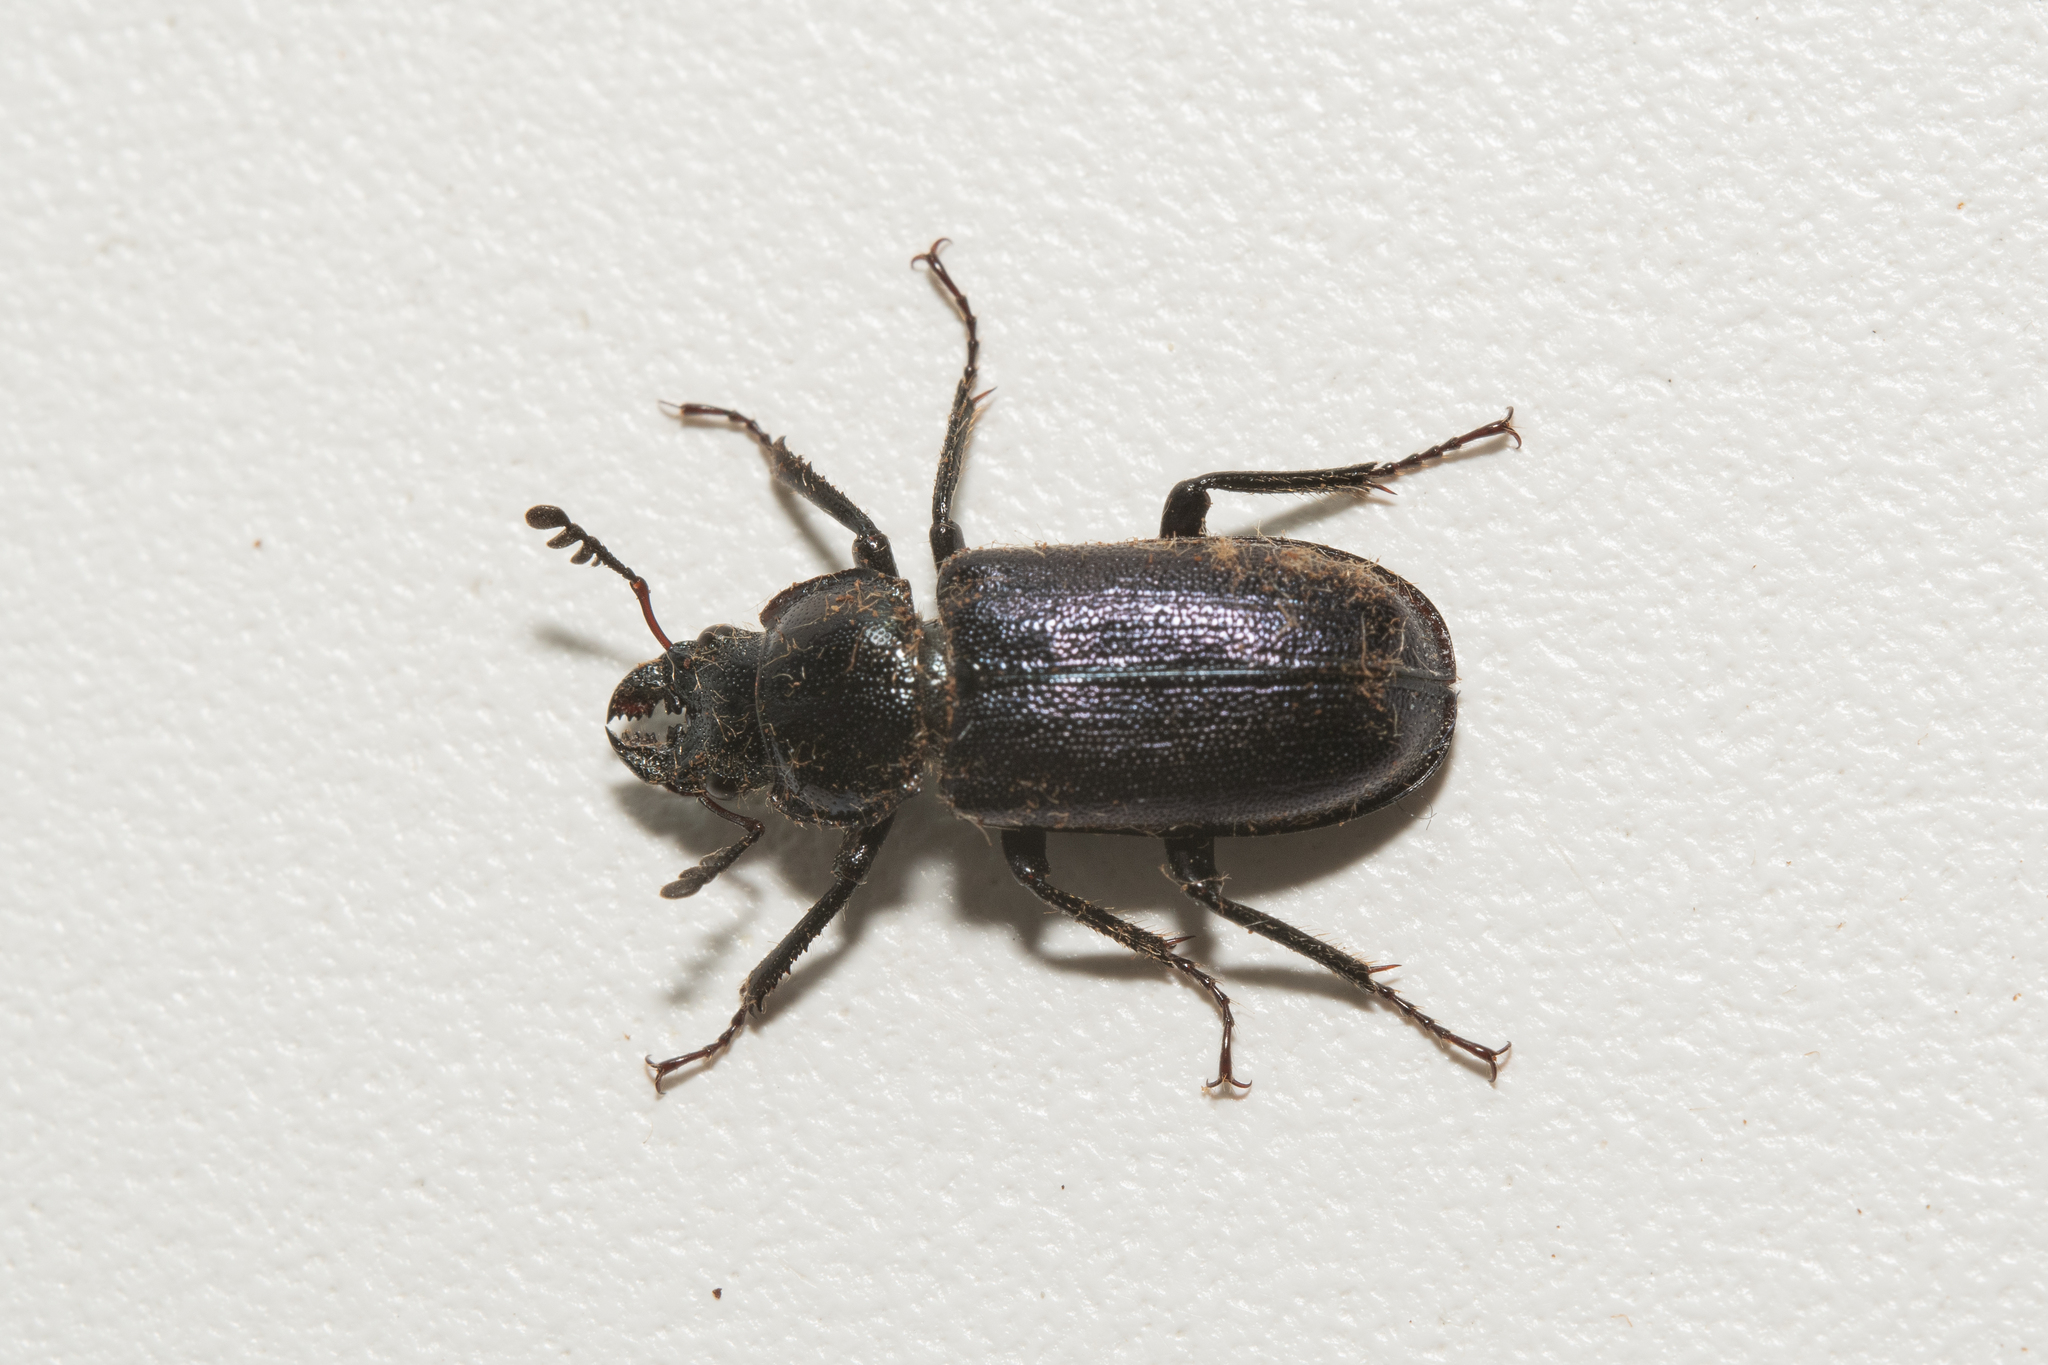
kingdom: Animalia
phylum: Arthropoda
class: Insecta
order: Coleoptera
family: Lucanidae
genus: Platycerus
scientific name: Platycerus caraboides
